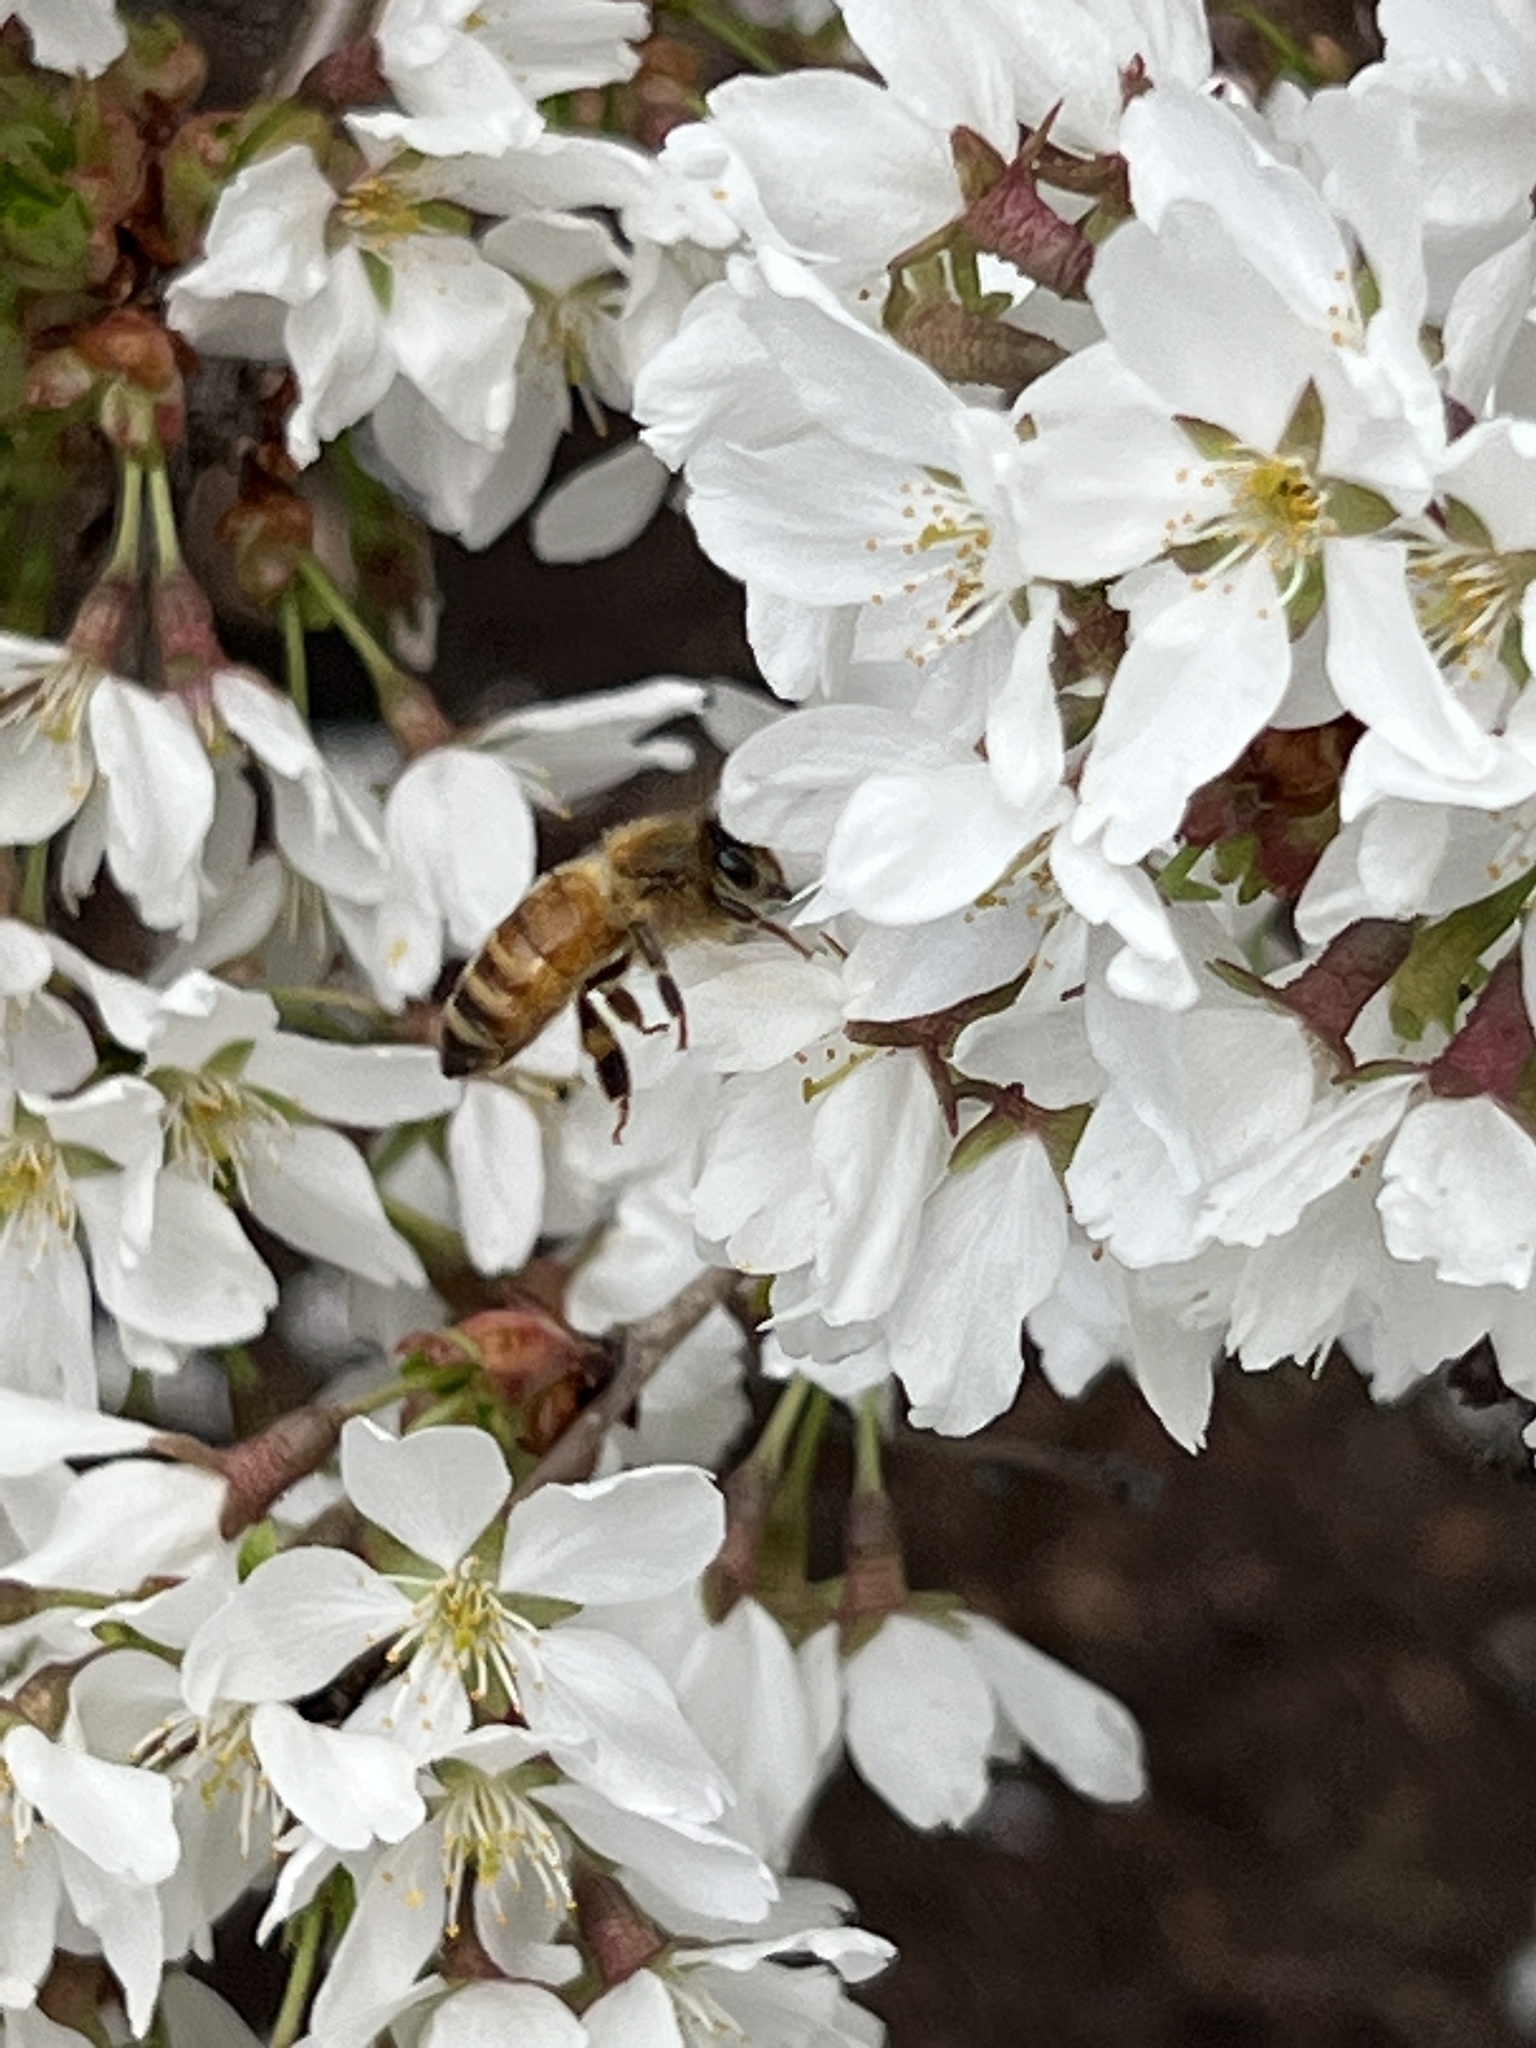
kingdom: Animalia
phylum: Arthropoda
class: Insecta
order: Hymenoptera
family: Apidae
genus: Apis
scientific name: Apis mellifera
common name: Honey bee
